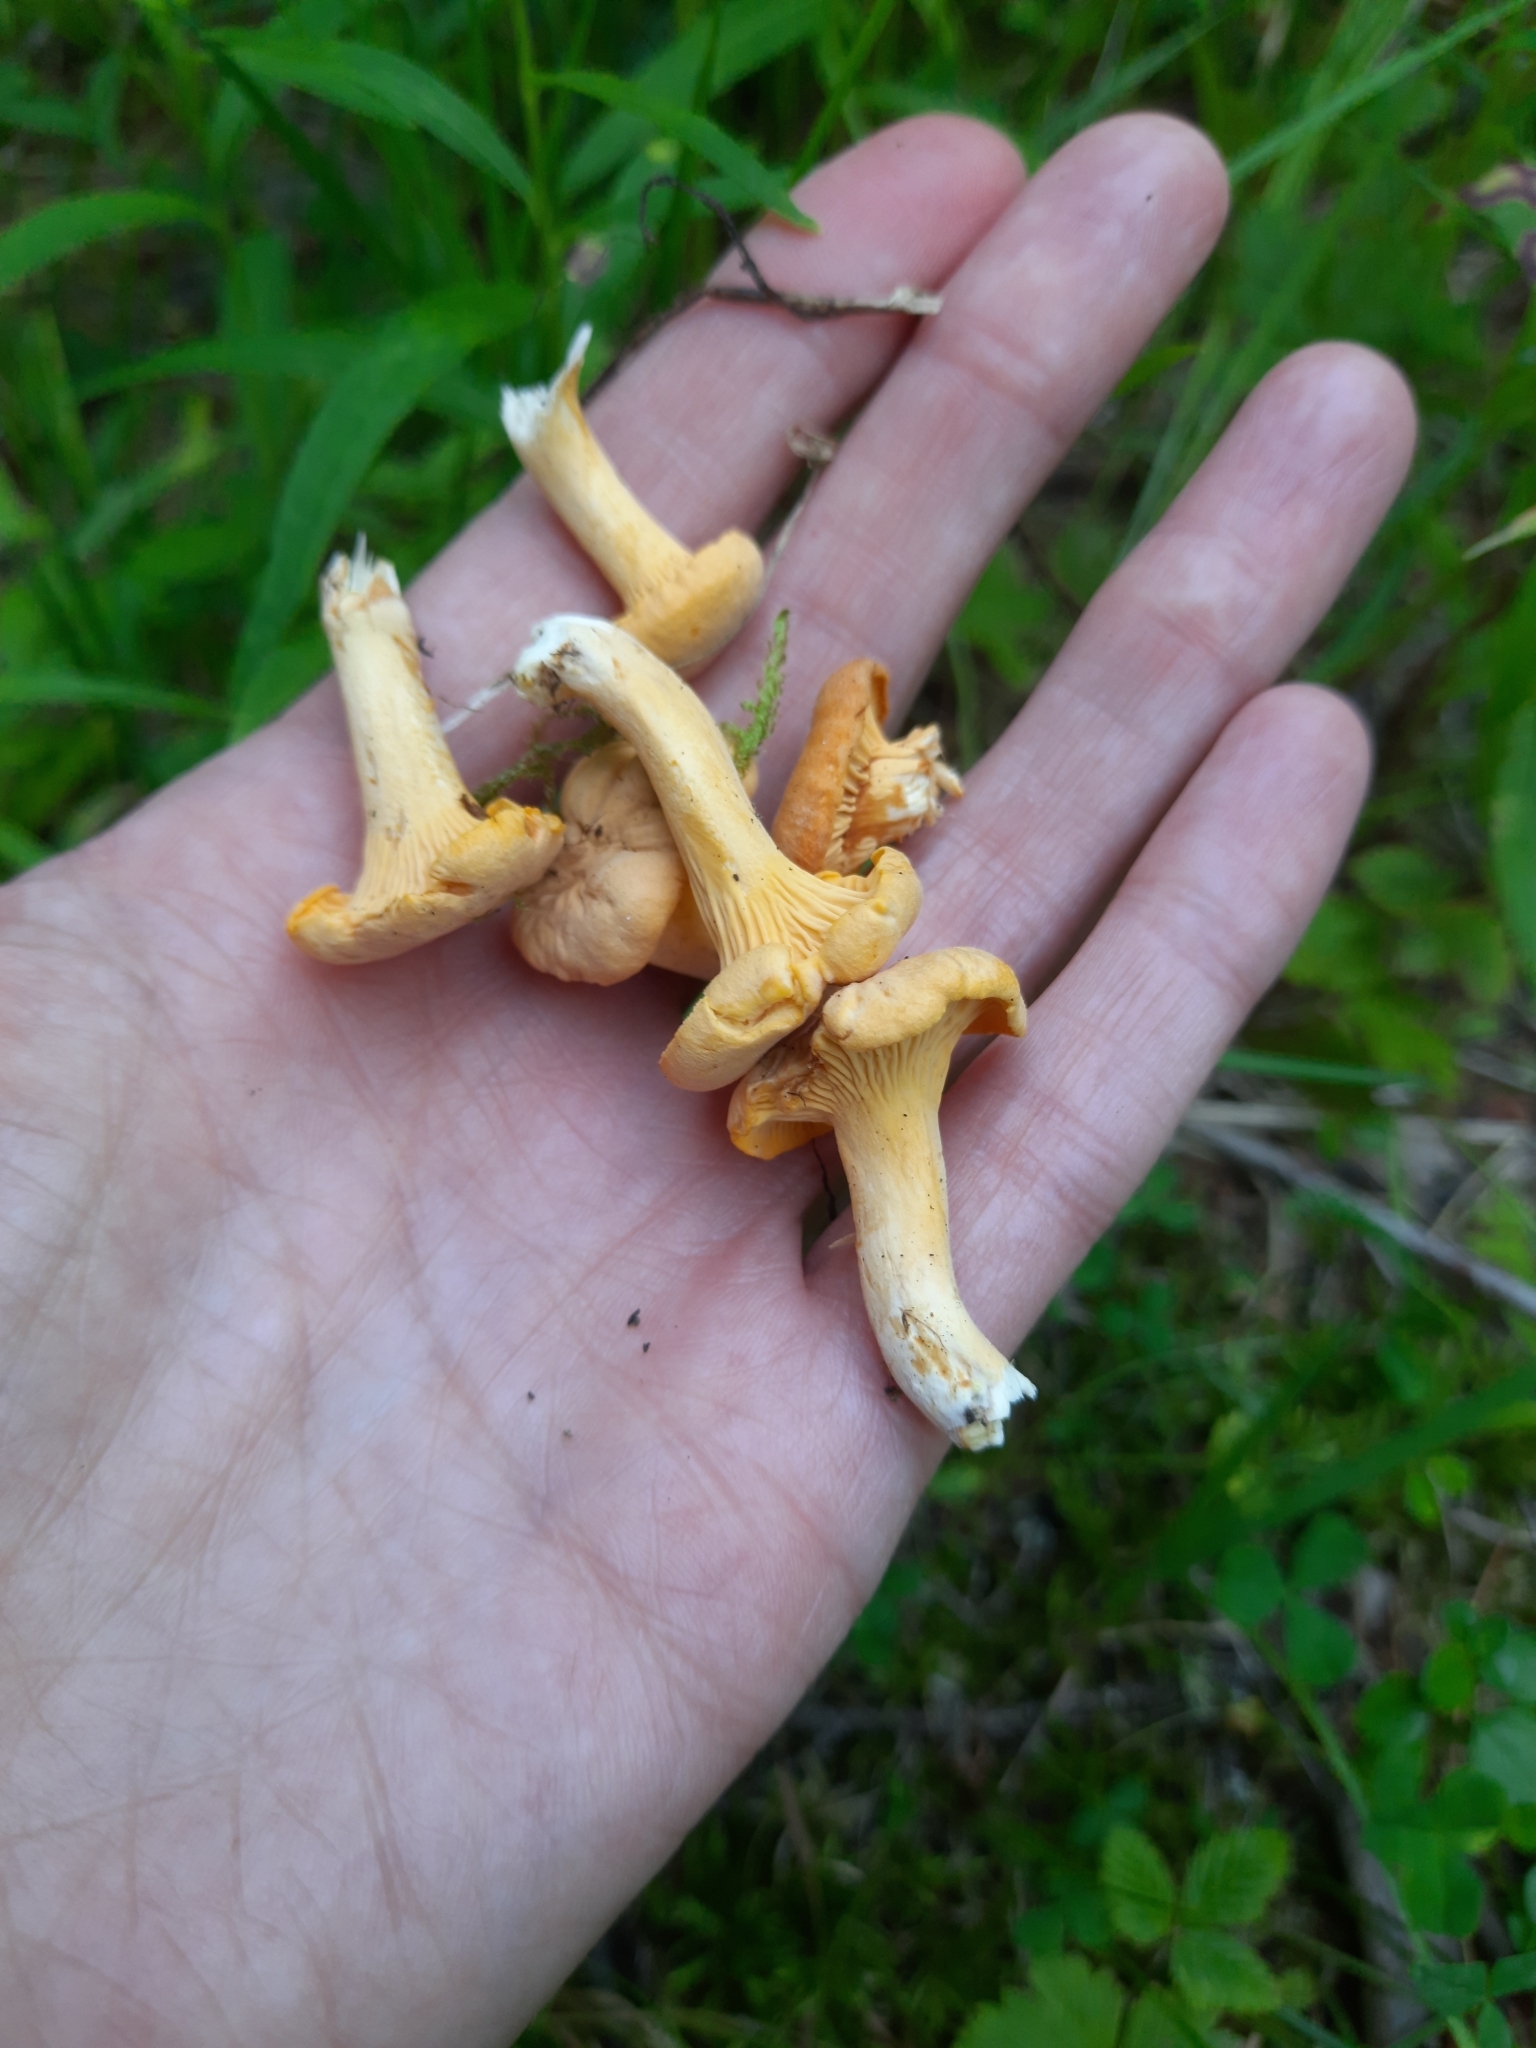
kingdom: Fungi
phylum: Basidiomycota
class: Agaricomycetes
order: Cantharellales
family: Hydnaceae
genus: Cantharellus
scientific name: Cantharellus cibarius
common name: Chanterelle
